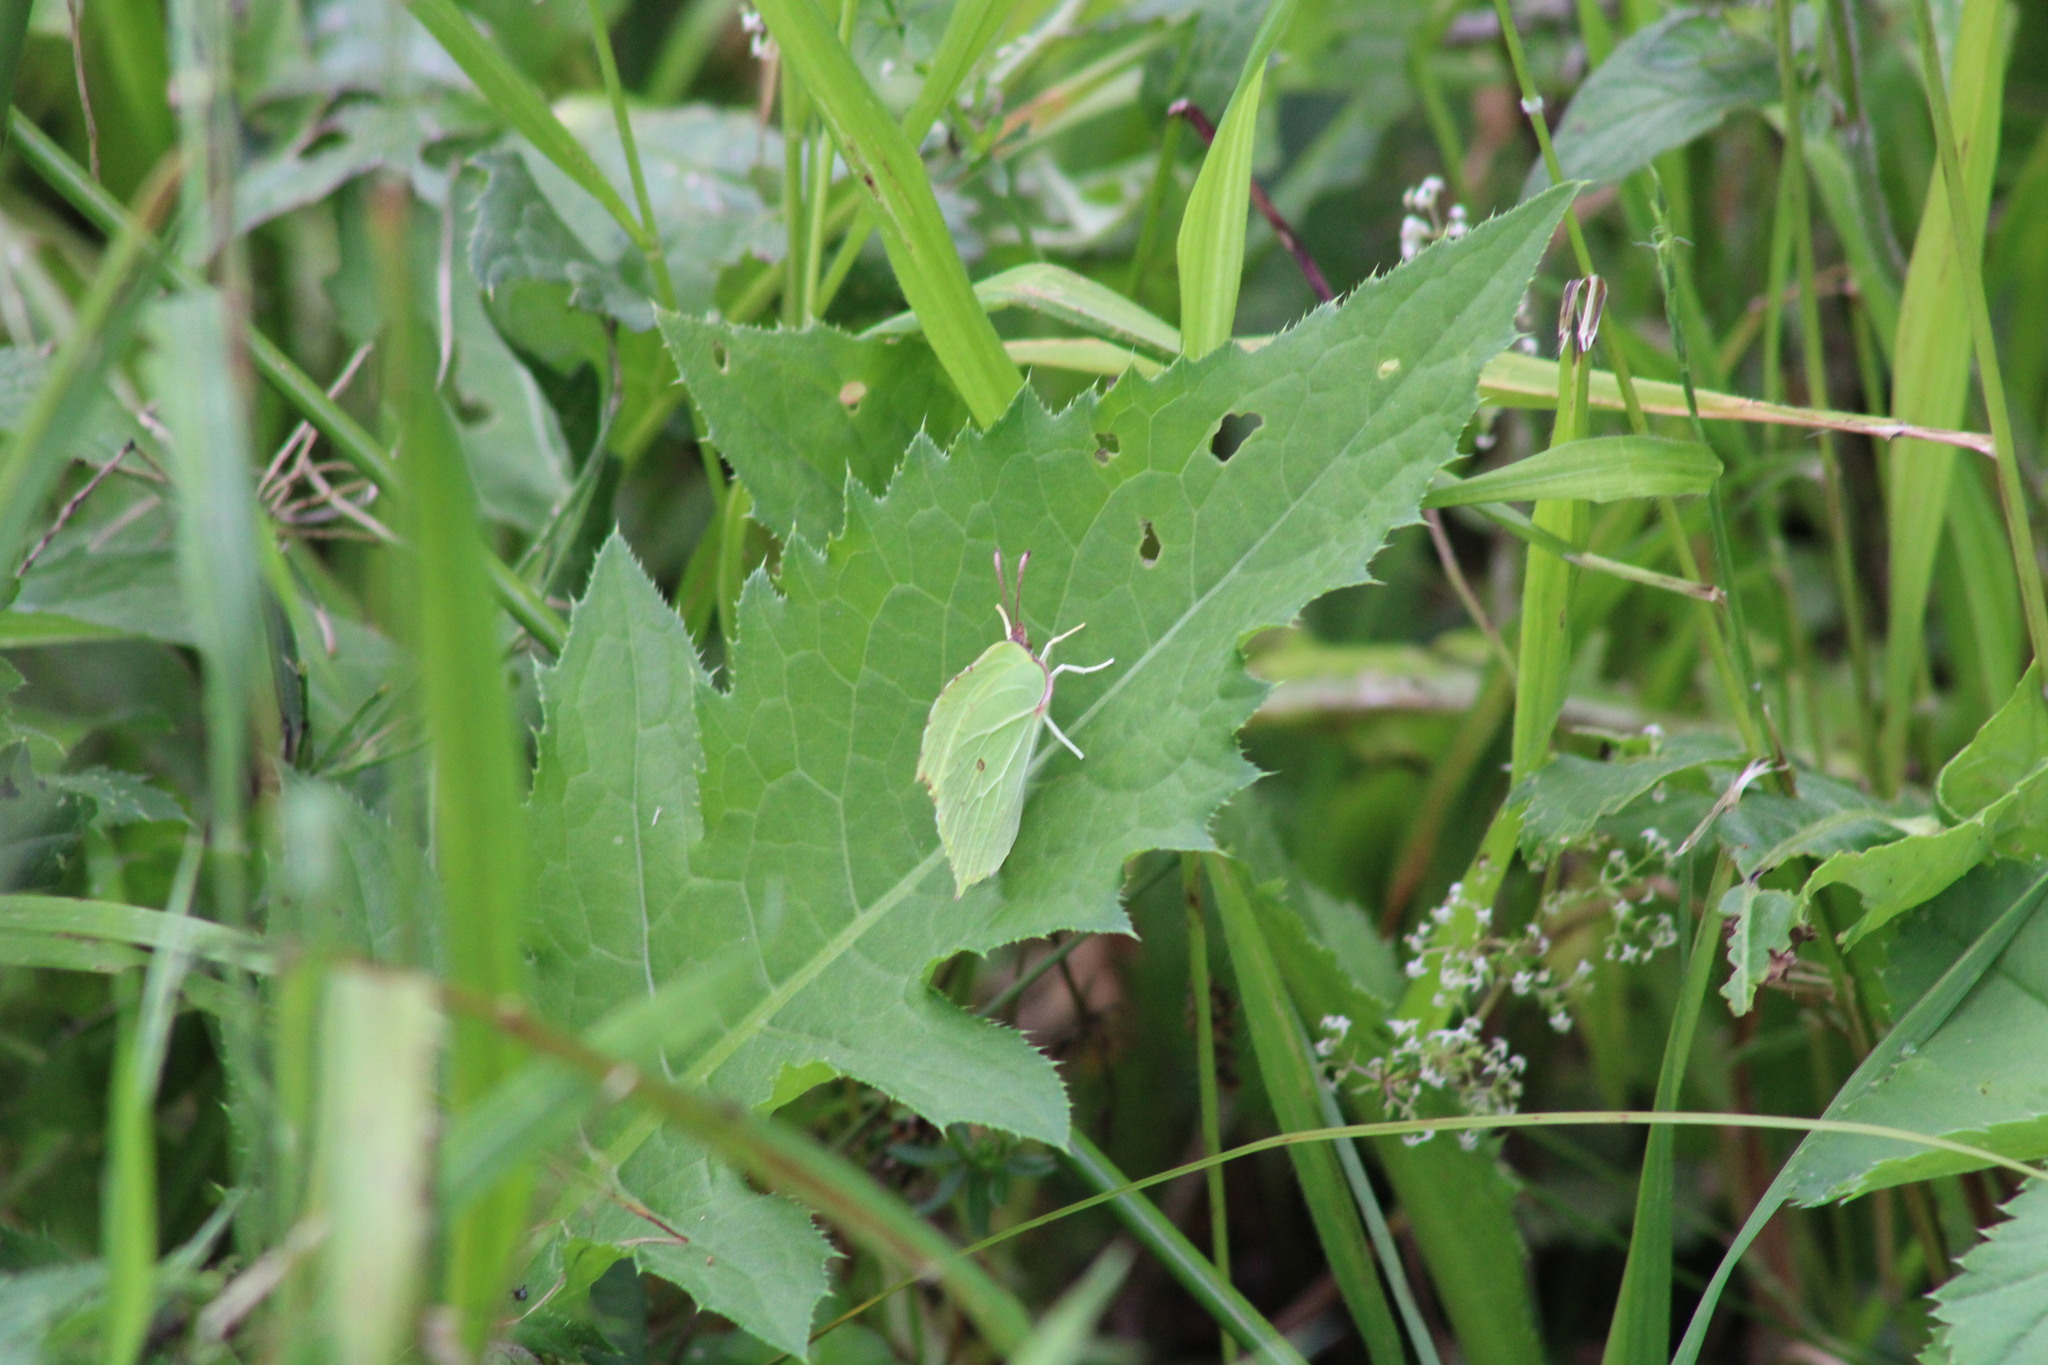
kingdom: Animalia
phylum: Arthropoda
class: Insecta
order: Lepidoptera
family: Pieridae
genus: Gonepteryx
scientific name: Gonepteryx rhamni
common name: Brimstone
